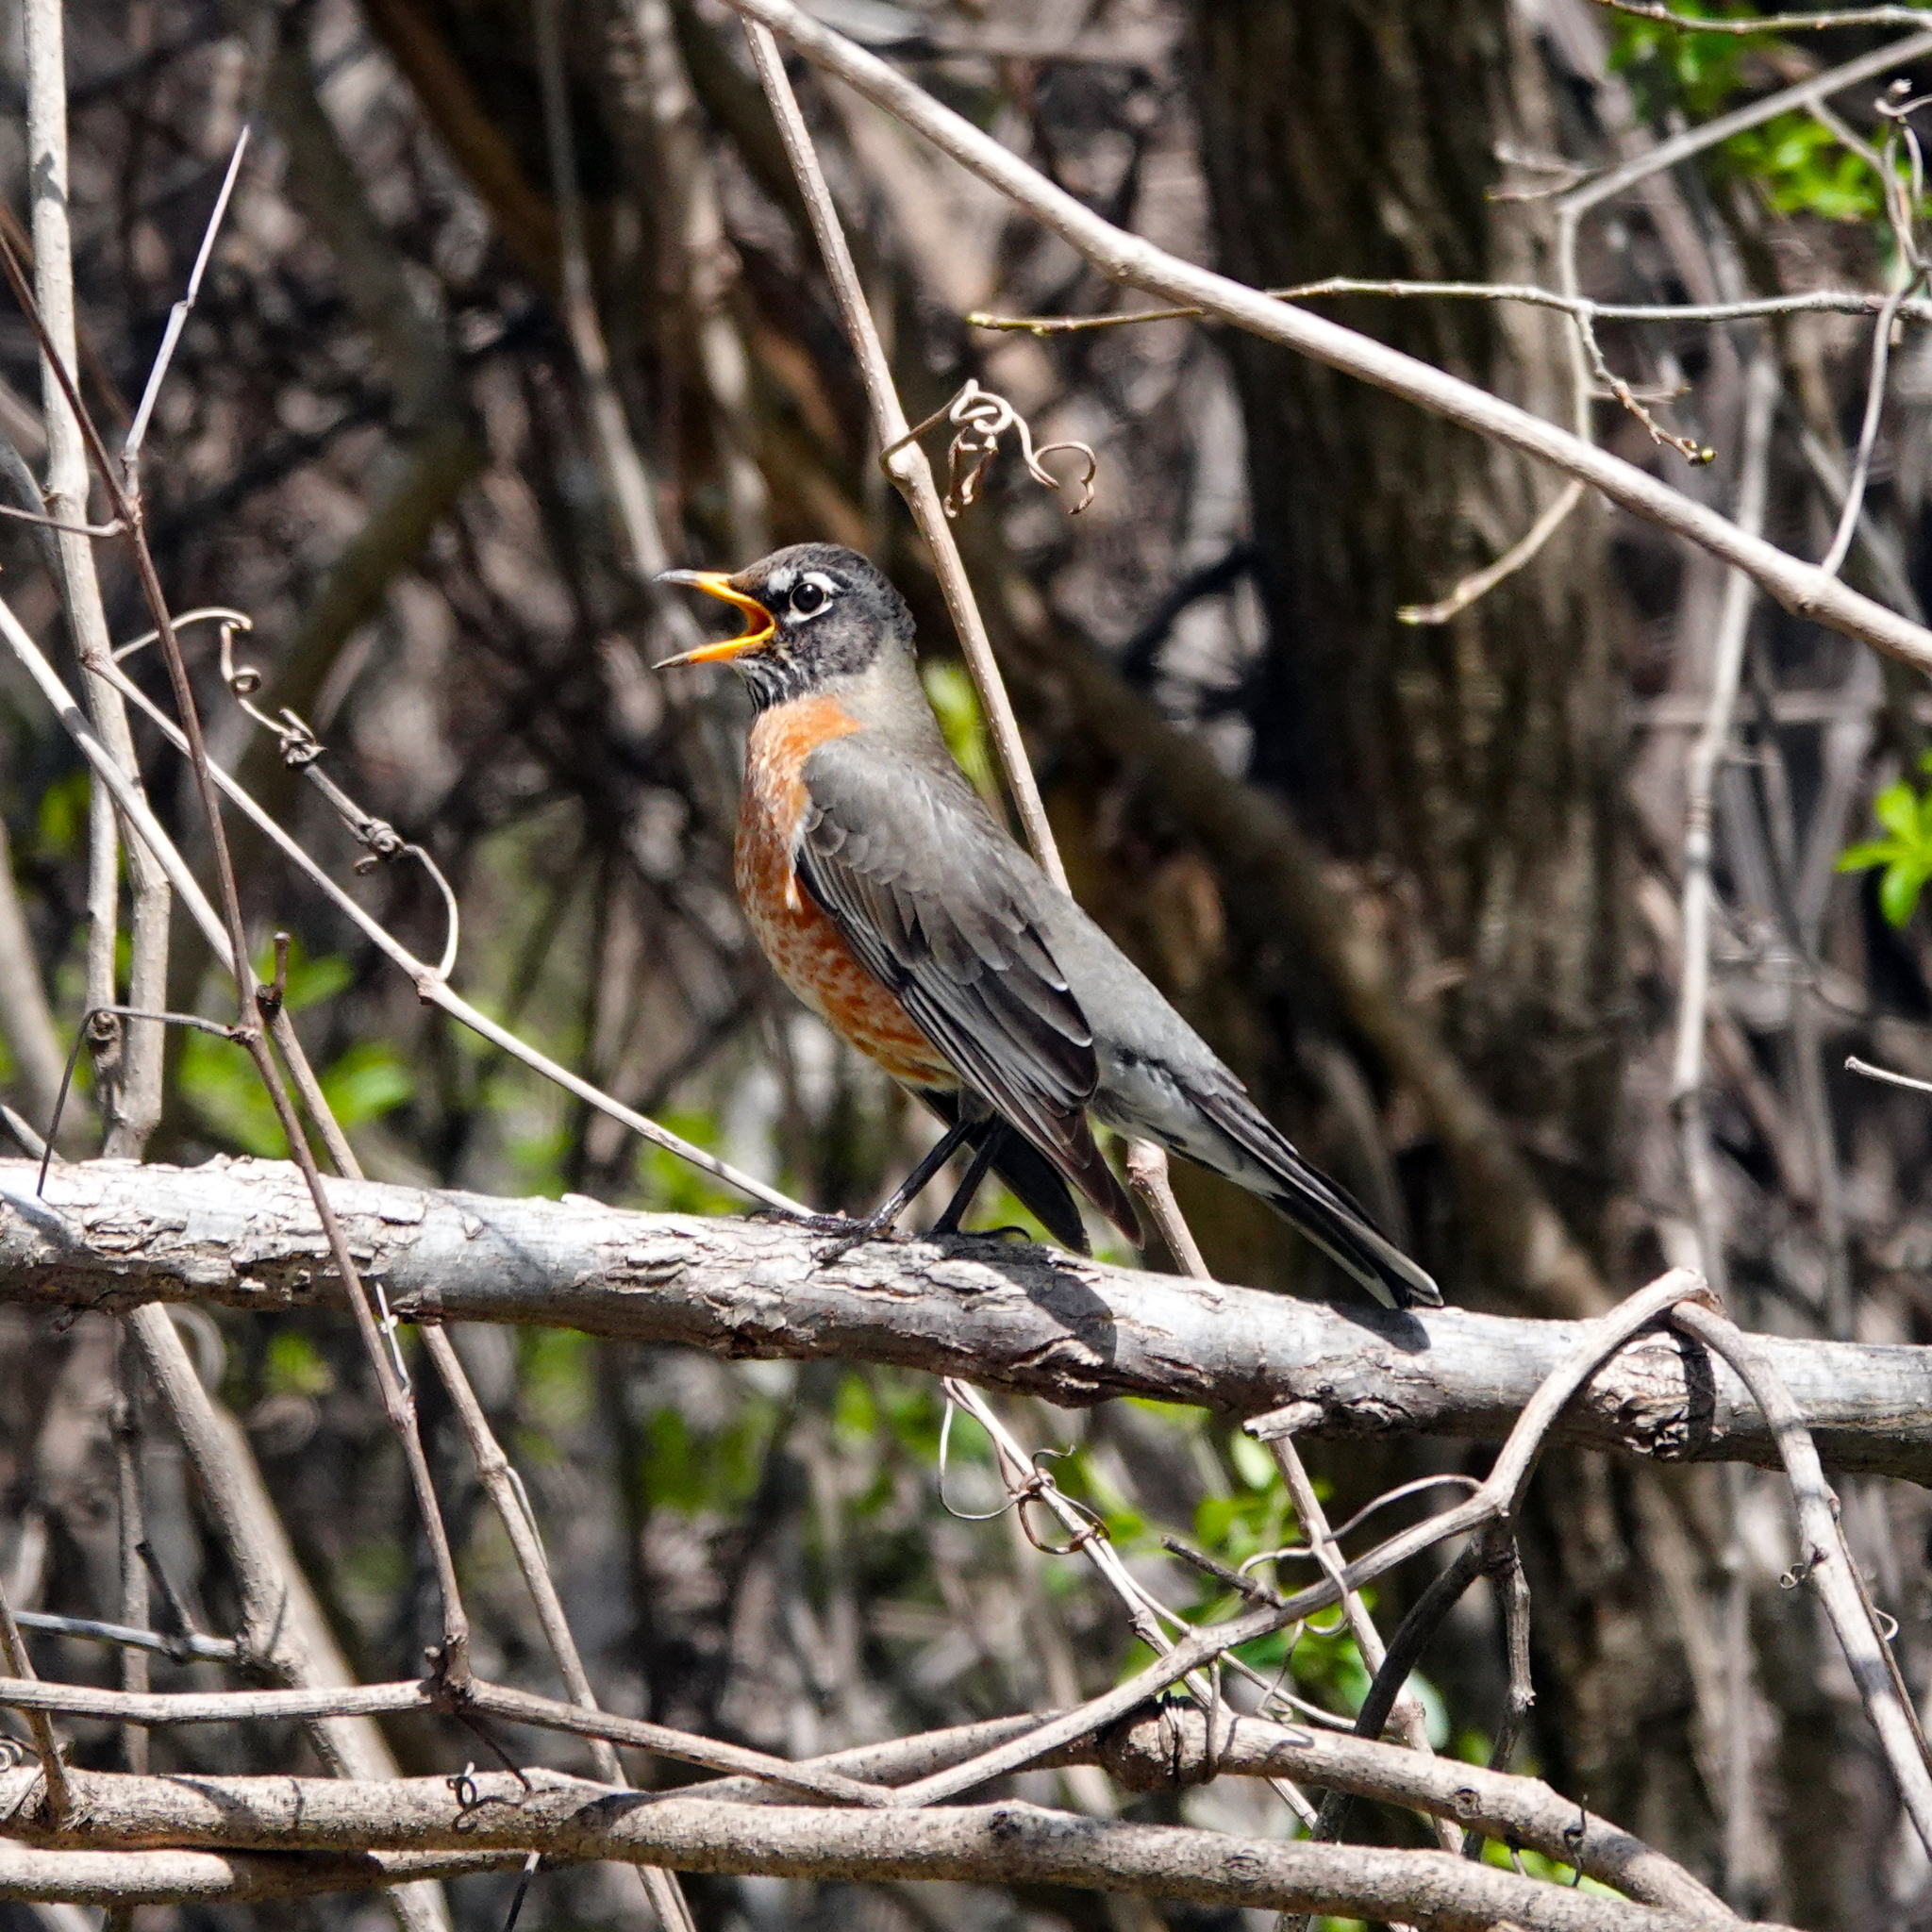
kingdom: Animalia
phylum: Chordata
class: Aves
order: Passeriformes
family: Turdidae
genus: Turdus
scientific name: Turdus migratorius
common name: American robin
